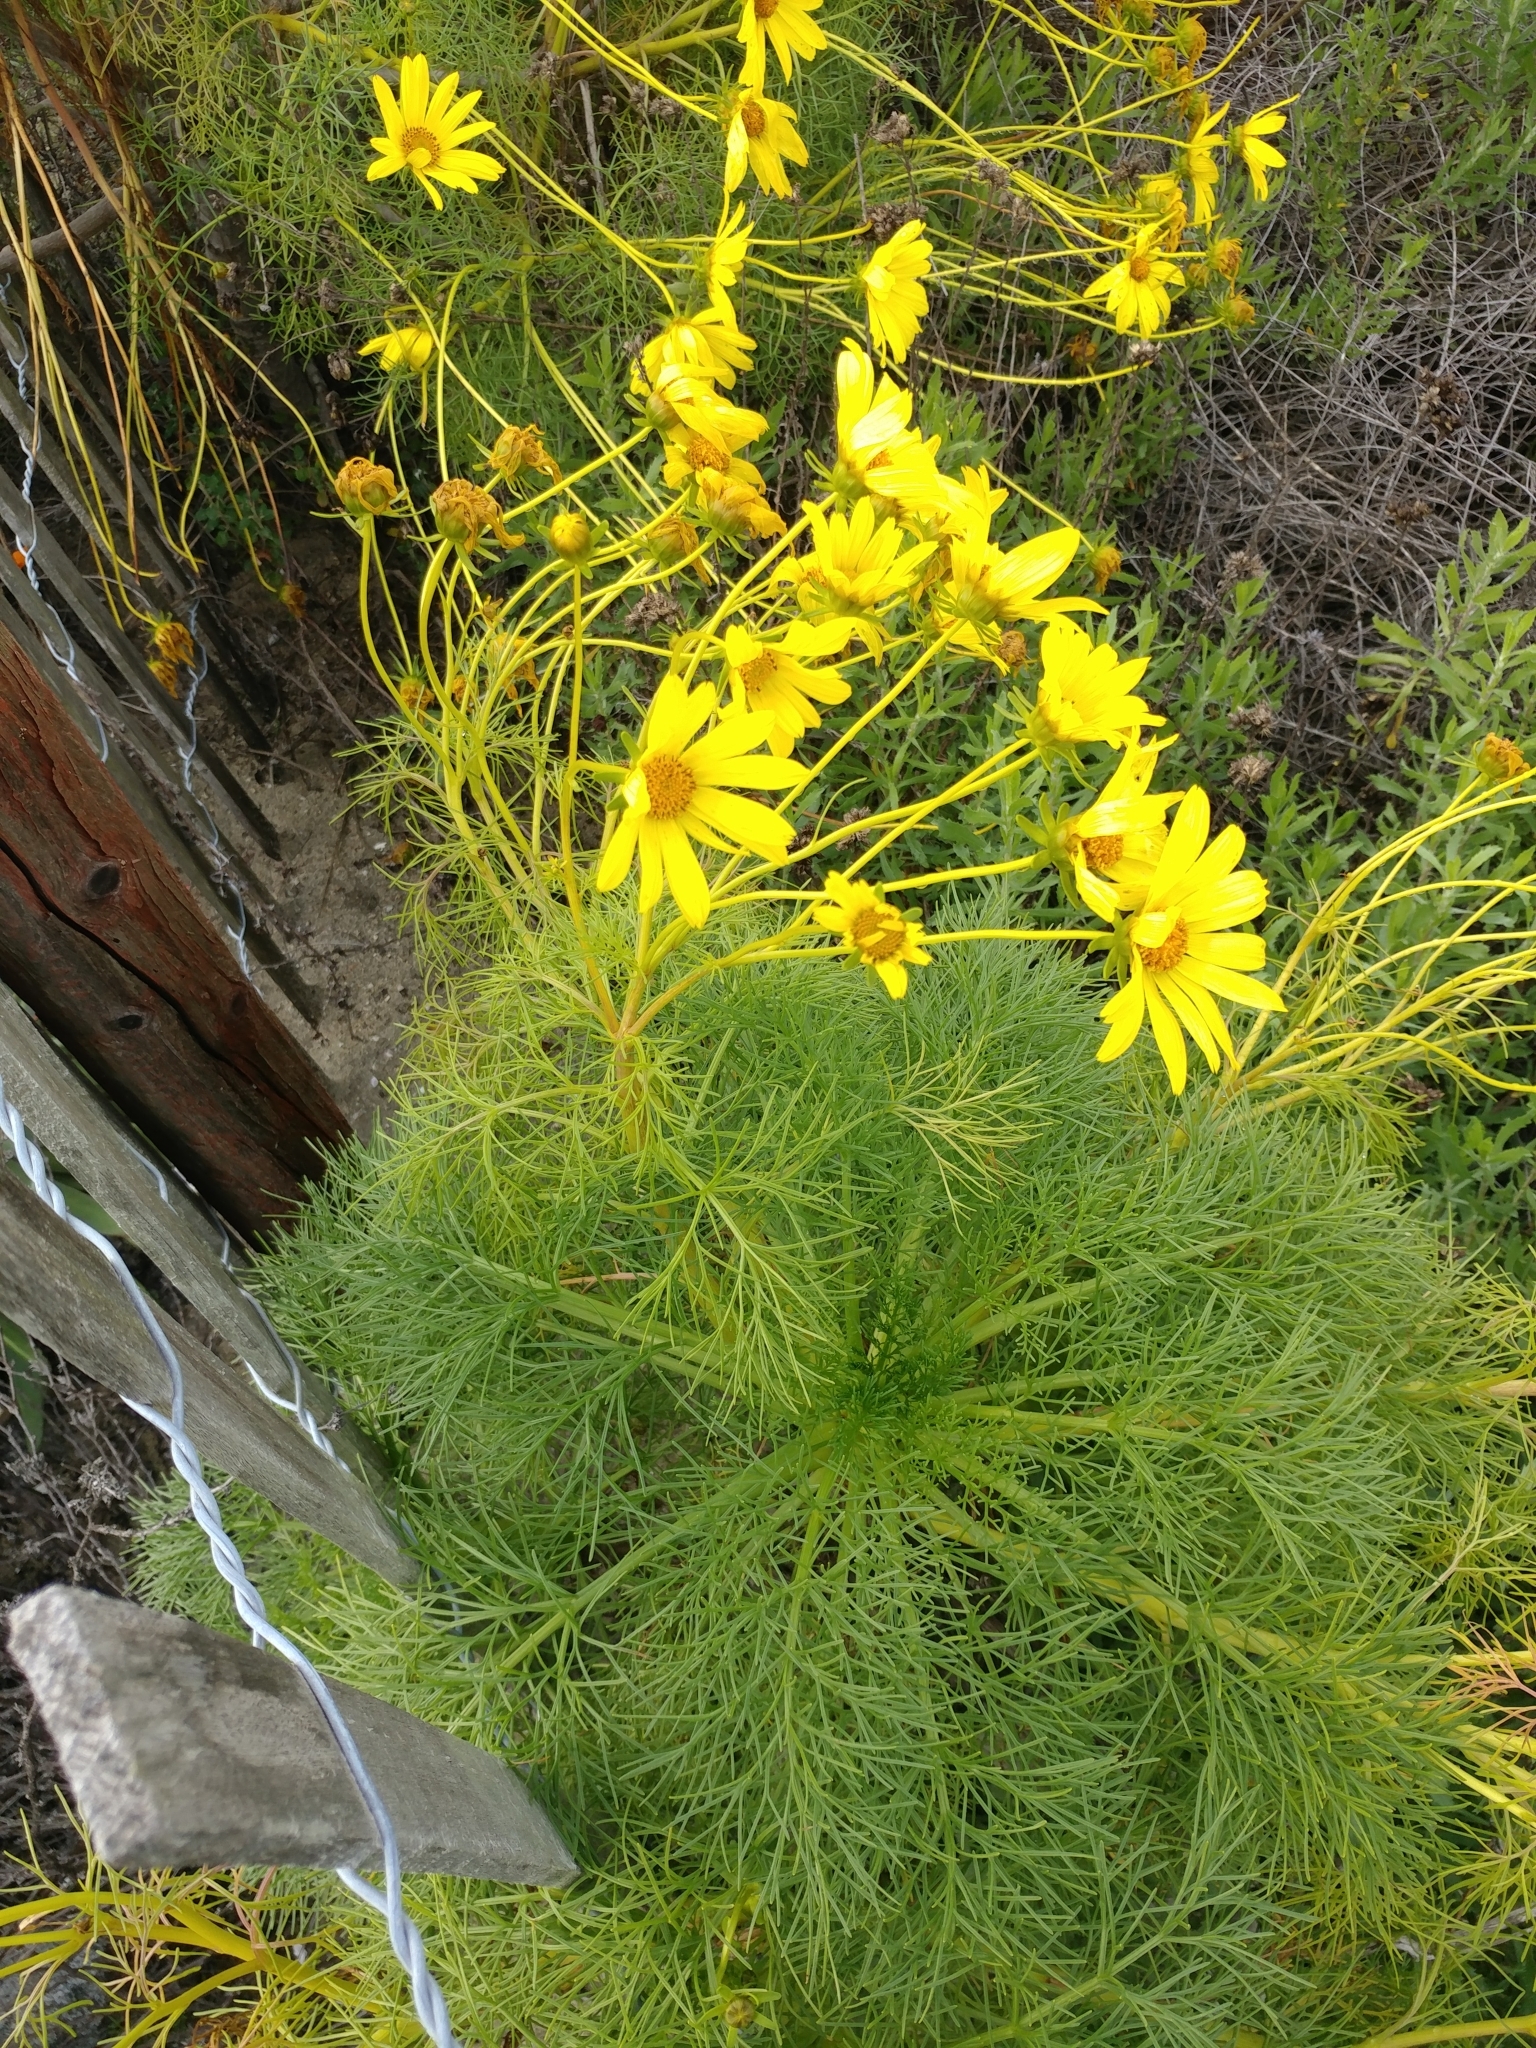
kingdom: Plantae
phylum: Tracheophyta
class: Magnoliopsida
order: Asterales
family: Asteraceae
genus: Coreopsis
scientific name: Coreopsis gigantea
